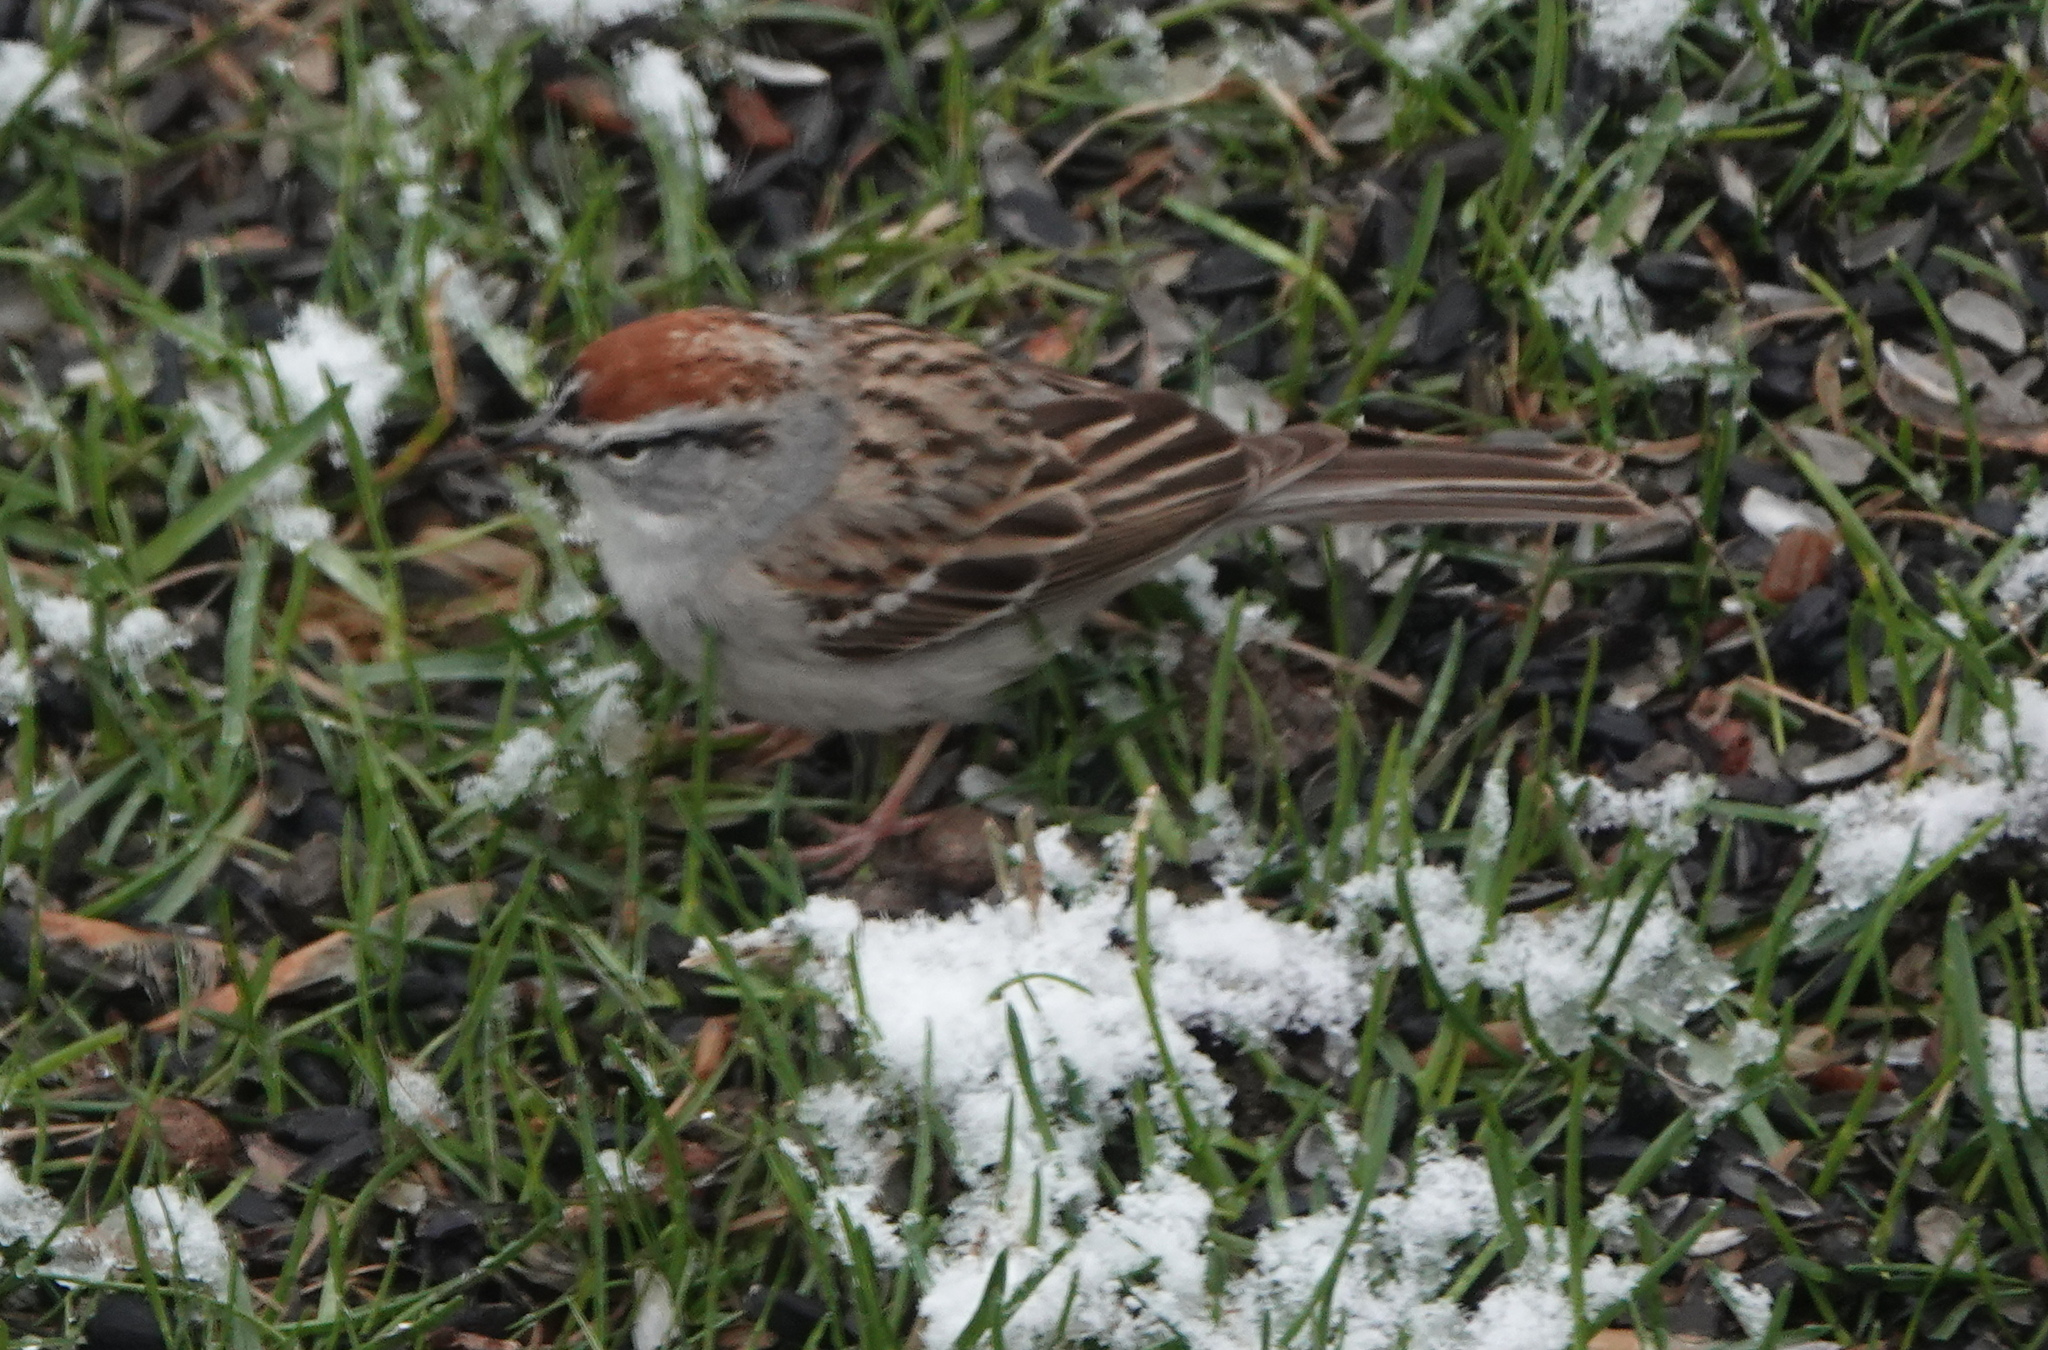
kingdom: Animalia
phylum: Chordata
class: Aves
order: Passeriformes
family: Passerellidae
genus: Spizella
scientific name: Spizella passerina
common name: Chipping sparrow
